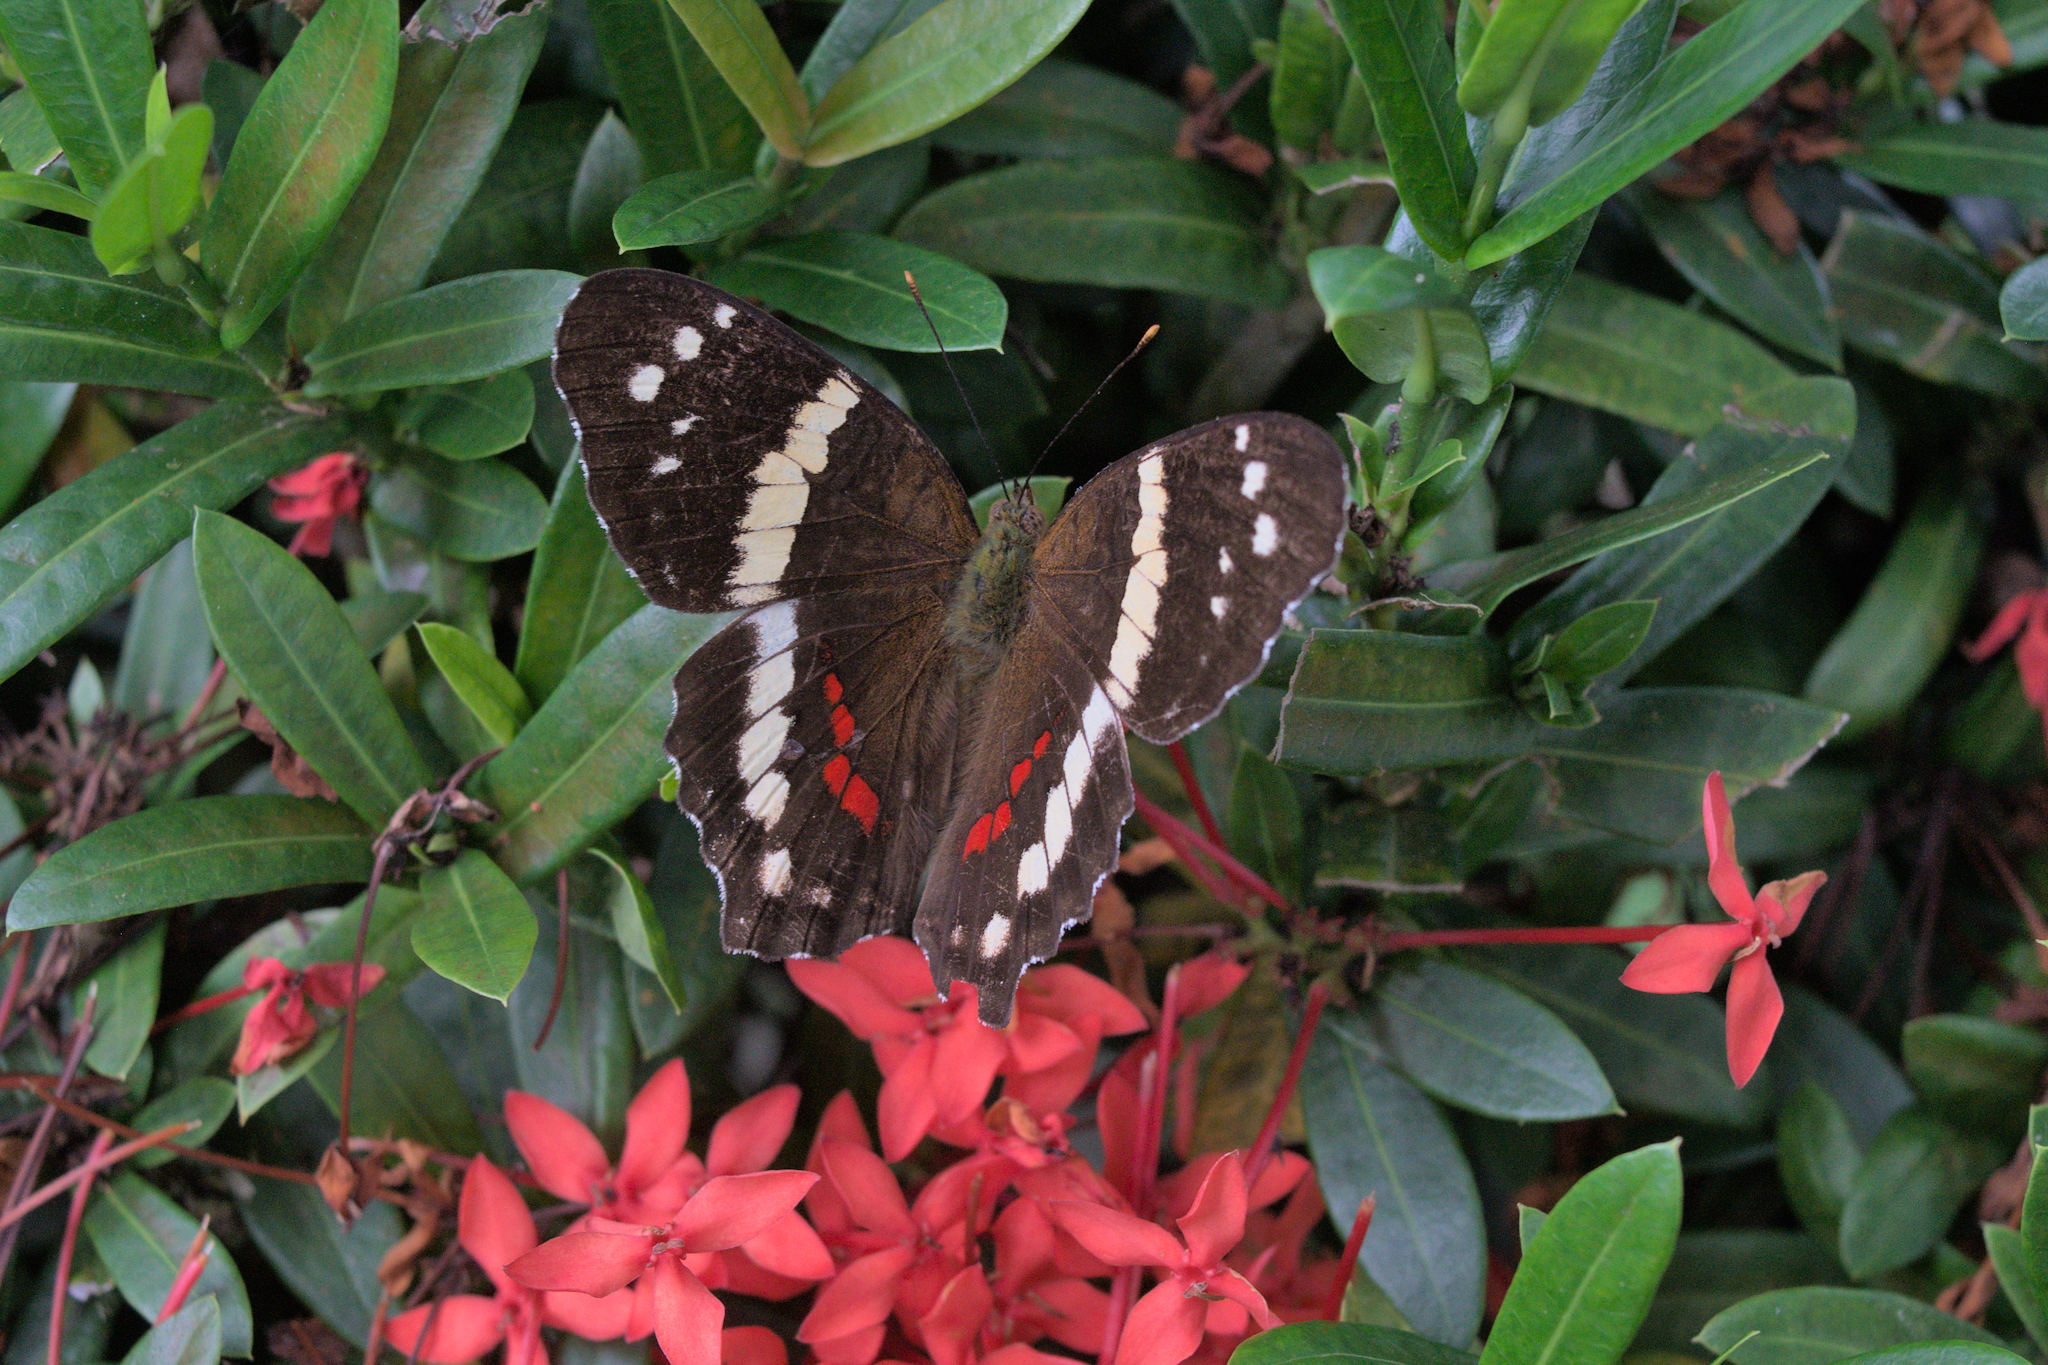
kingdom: Animalia
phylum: Arthropoda
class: Insecta
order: Lepidoptera
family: Nymphalidae
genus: Anartia
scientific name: Anartia fatima
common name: Banded peacock
